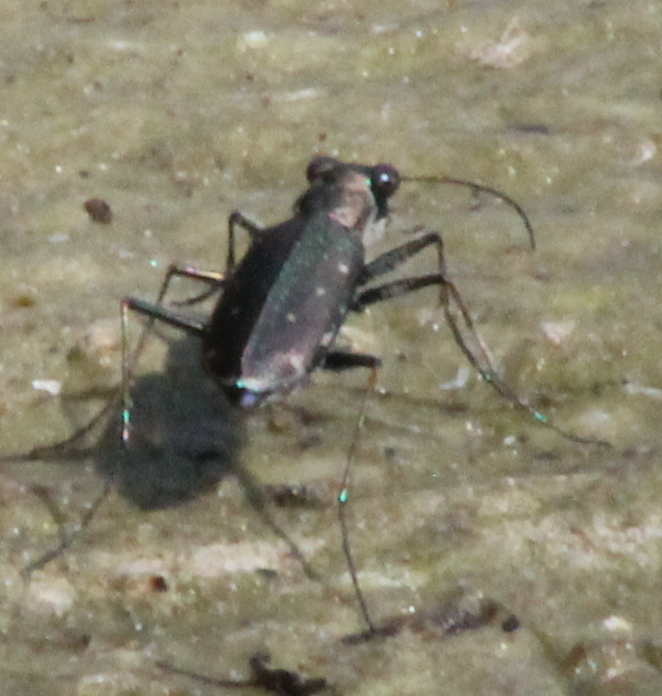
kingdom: Animalia
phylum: Arthropoda
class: Insecta
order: Coleoptera
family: Carabidae
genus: Cicindela
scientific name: Cicindela punctulata
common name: Punctured tiger beetle
